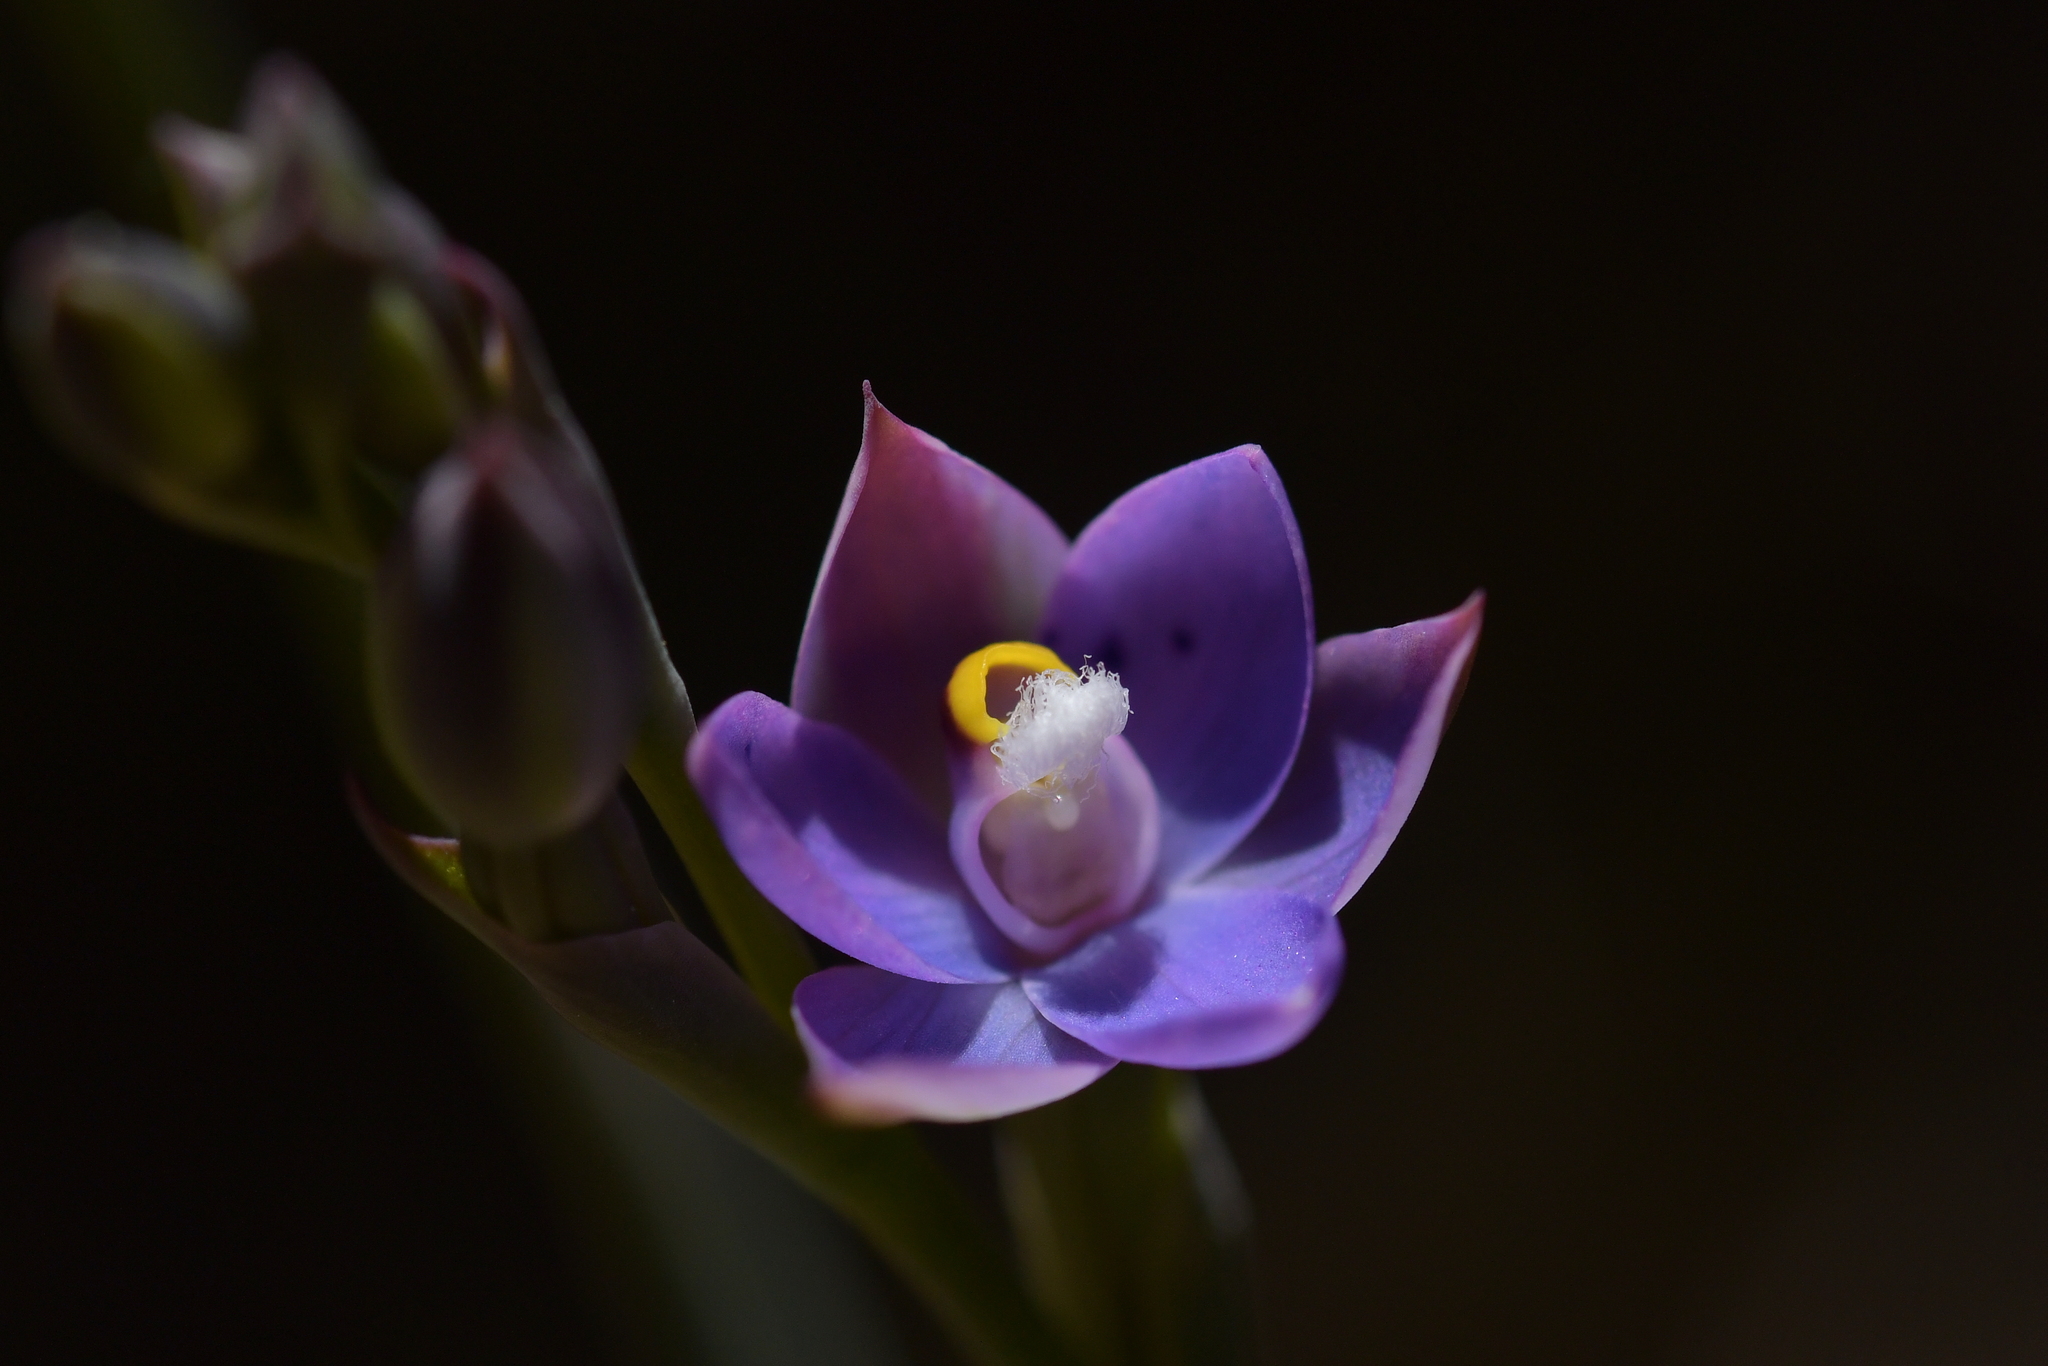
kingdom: Plantae
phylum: Tracheophyta
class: Liliopsida
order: Asparagales
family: Orchidaceae
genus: Thelymitra
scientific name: Thelymitra nervosa
